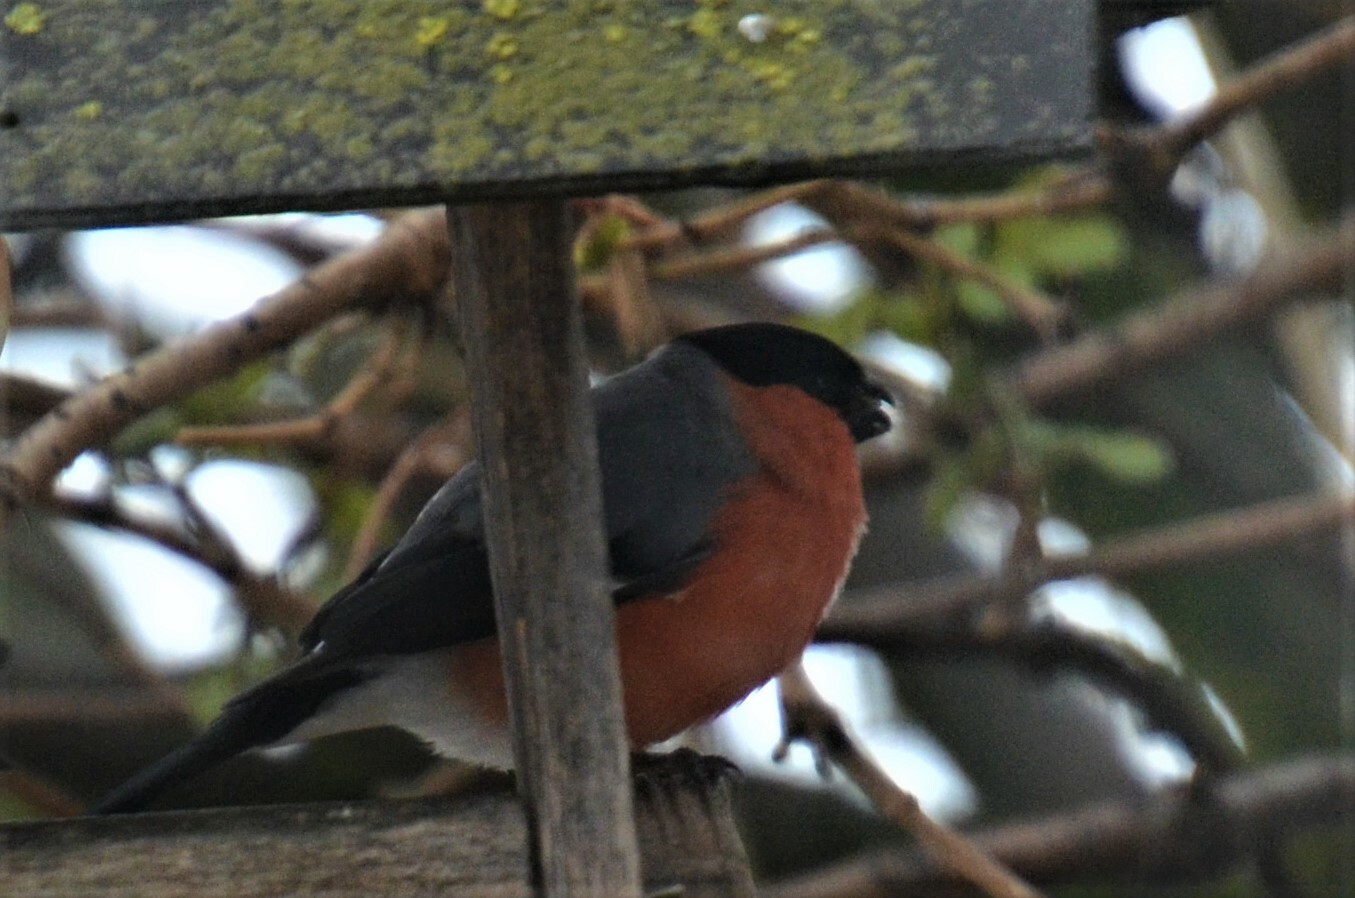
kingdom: Animalia
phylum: Chordata
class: Aves
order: Passeriformes
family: Fringillidae
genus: Pyrrhula
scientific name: Pyrrhula pyrrhula
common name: Eurasian bullfinch
